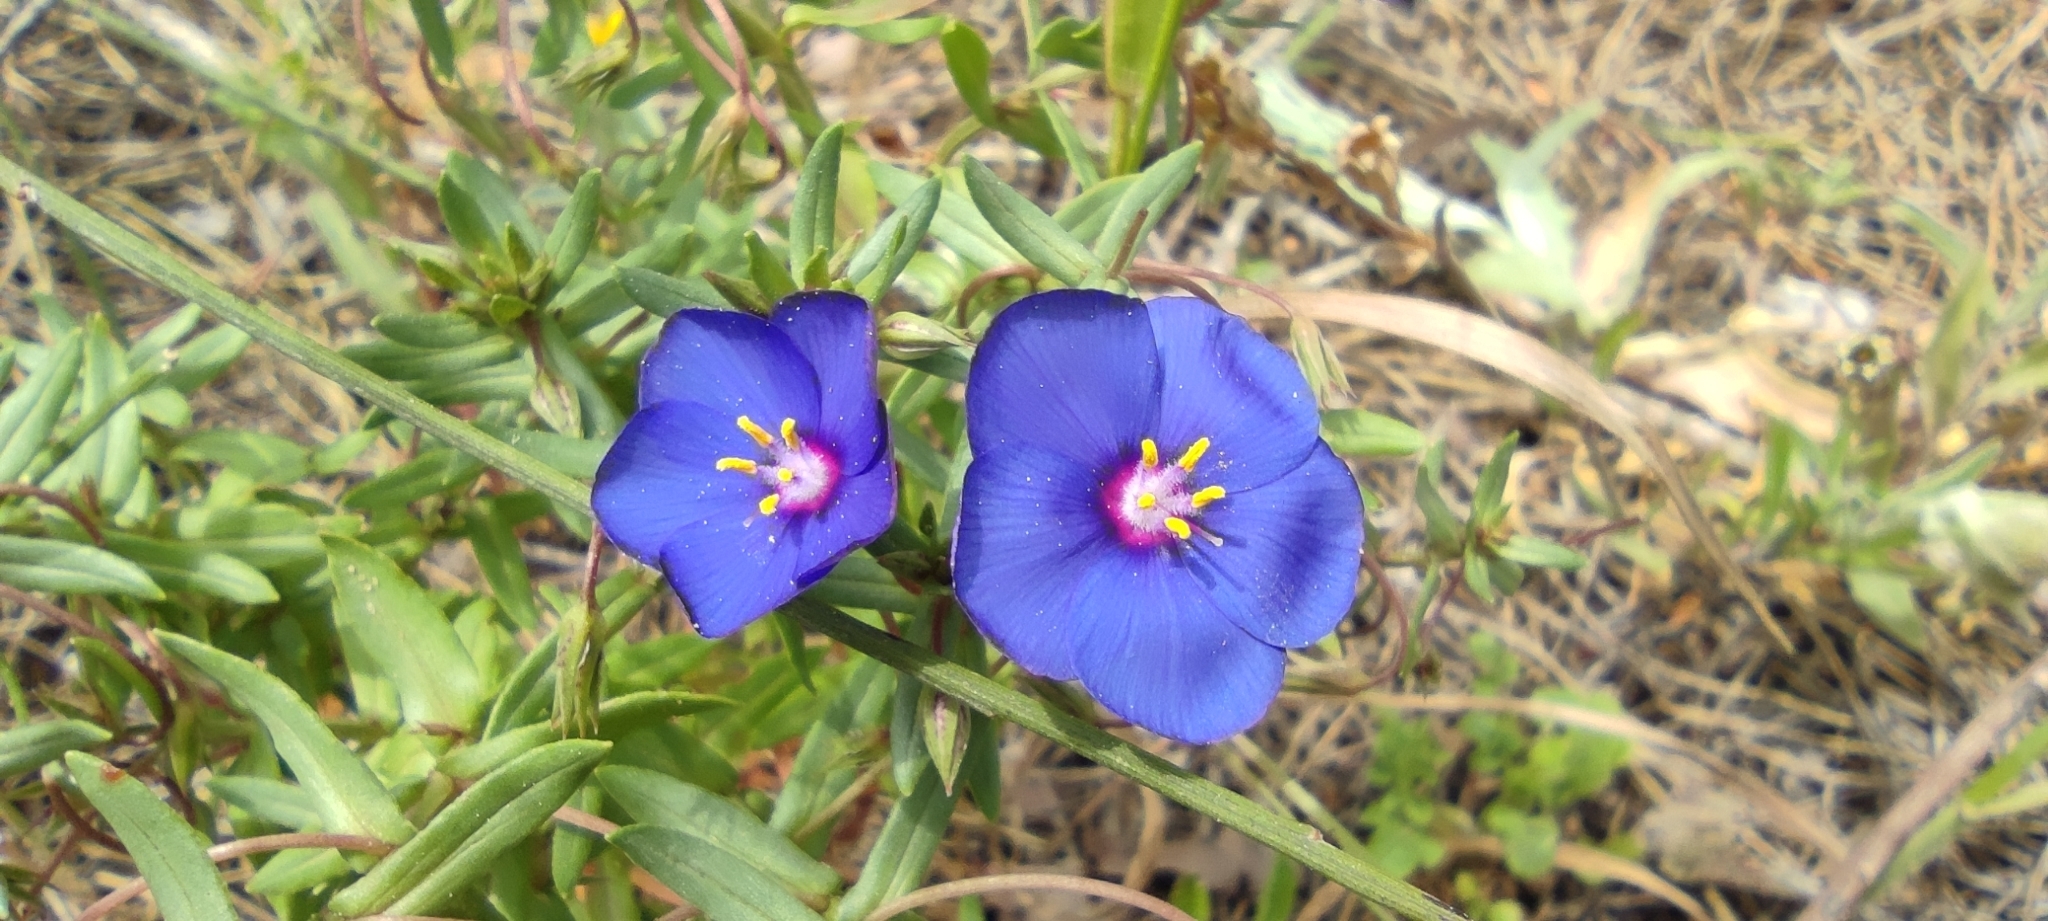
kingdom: Plantae
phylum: Tracheophyta
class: Magnoliopsida
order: Ericales
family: Primulaceae
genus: Lysimachia
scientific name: Lysimachia monelli
